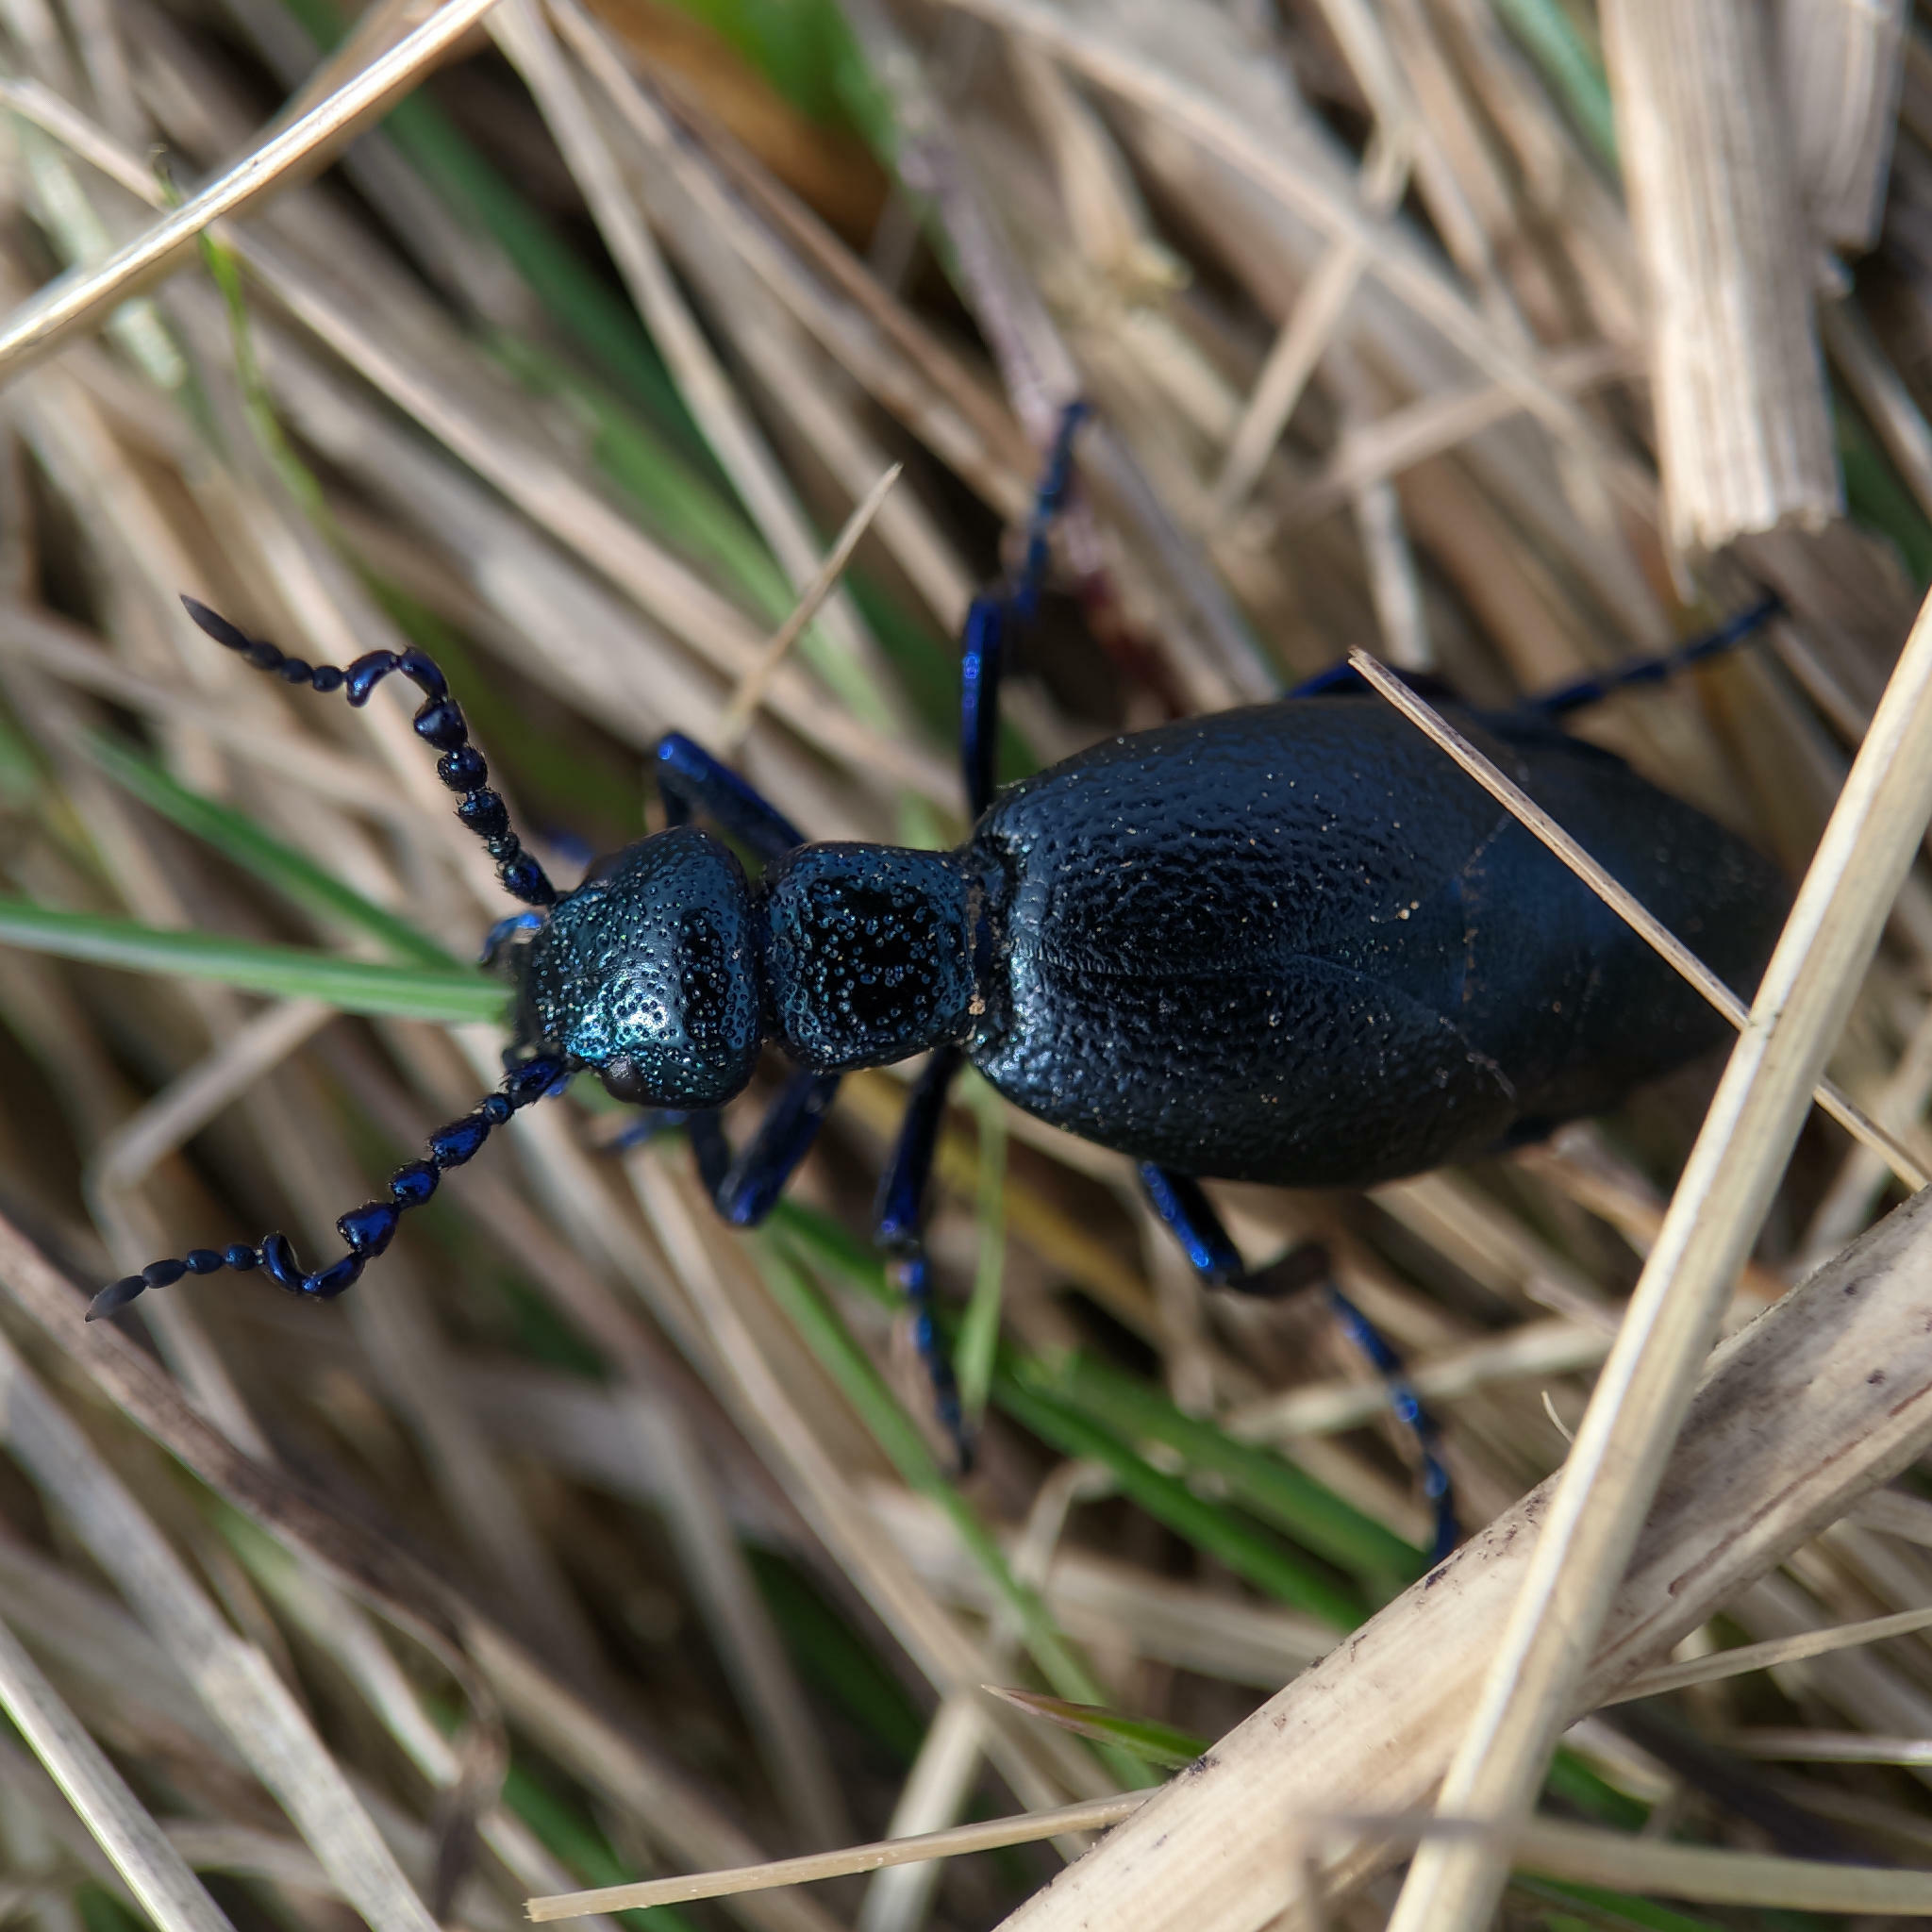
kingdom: Animalia
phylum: Arthropoda
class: Insecta
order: Coleoptera
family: Meloidae
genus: Meloe
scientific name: Meloe proscarabaeus
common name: Black oil-beetle
